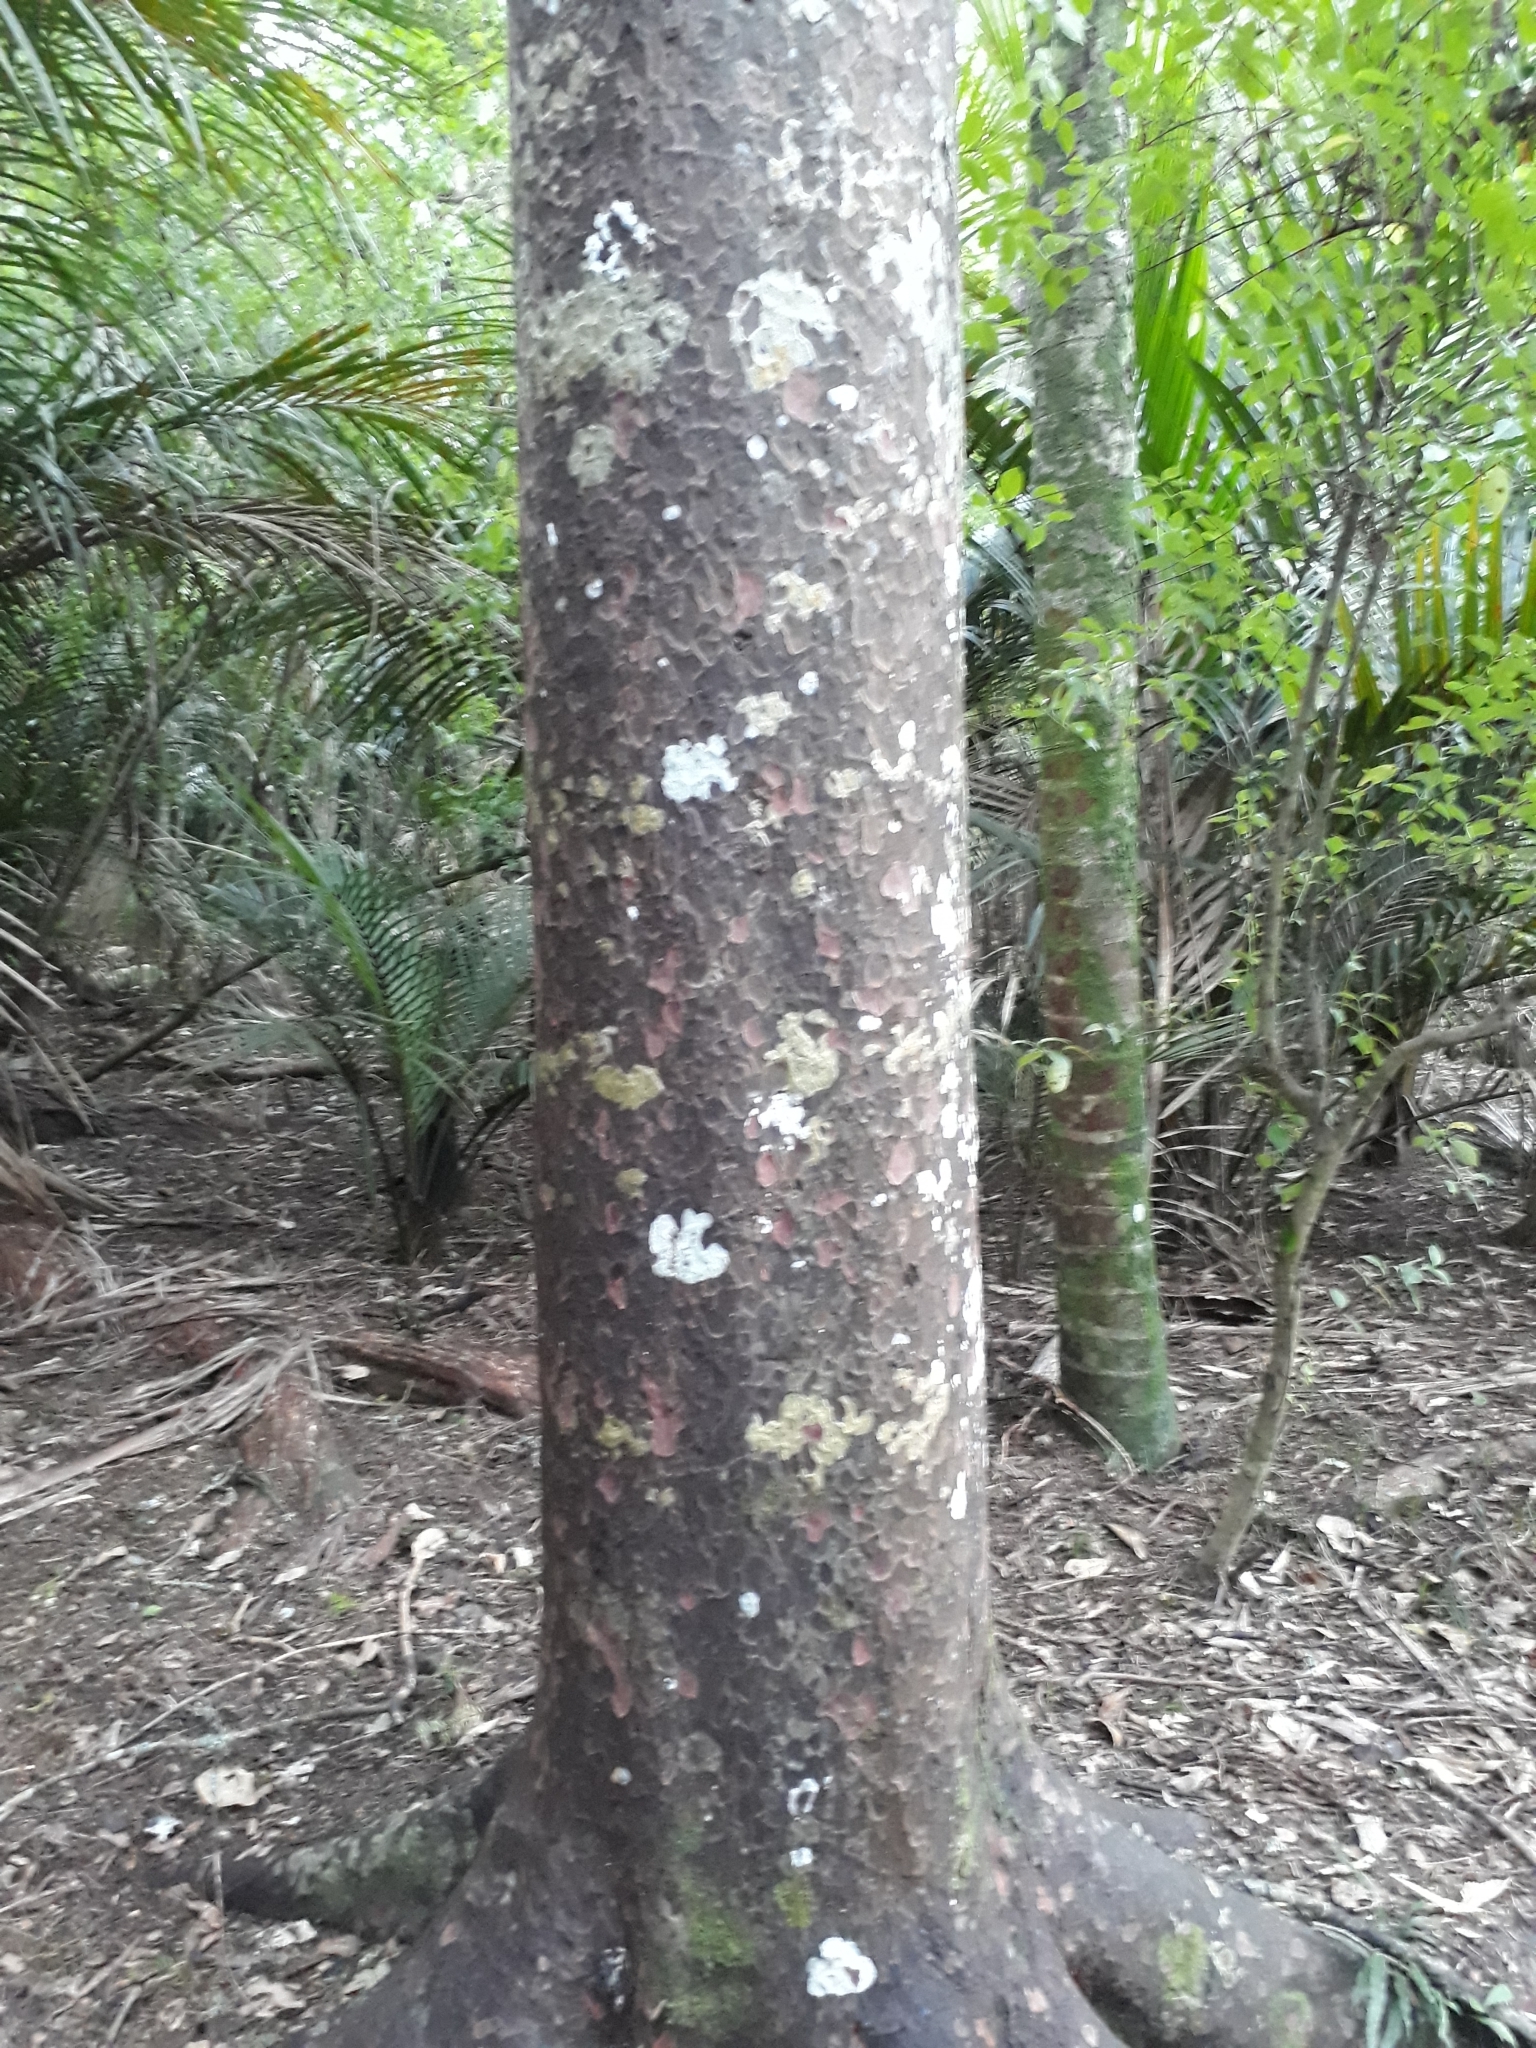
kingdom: Plantae
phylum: Tracheophyta
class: Pinopsida
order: Pinales
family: Podocarpaceae
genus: Prumnopitys
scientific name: Prumnopitys taxifolia
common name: Matai
